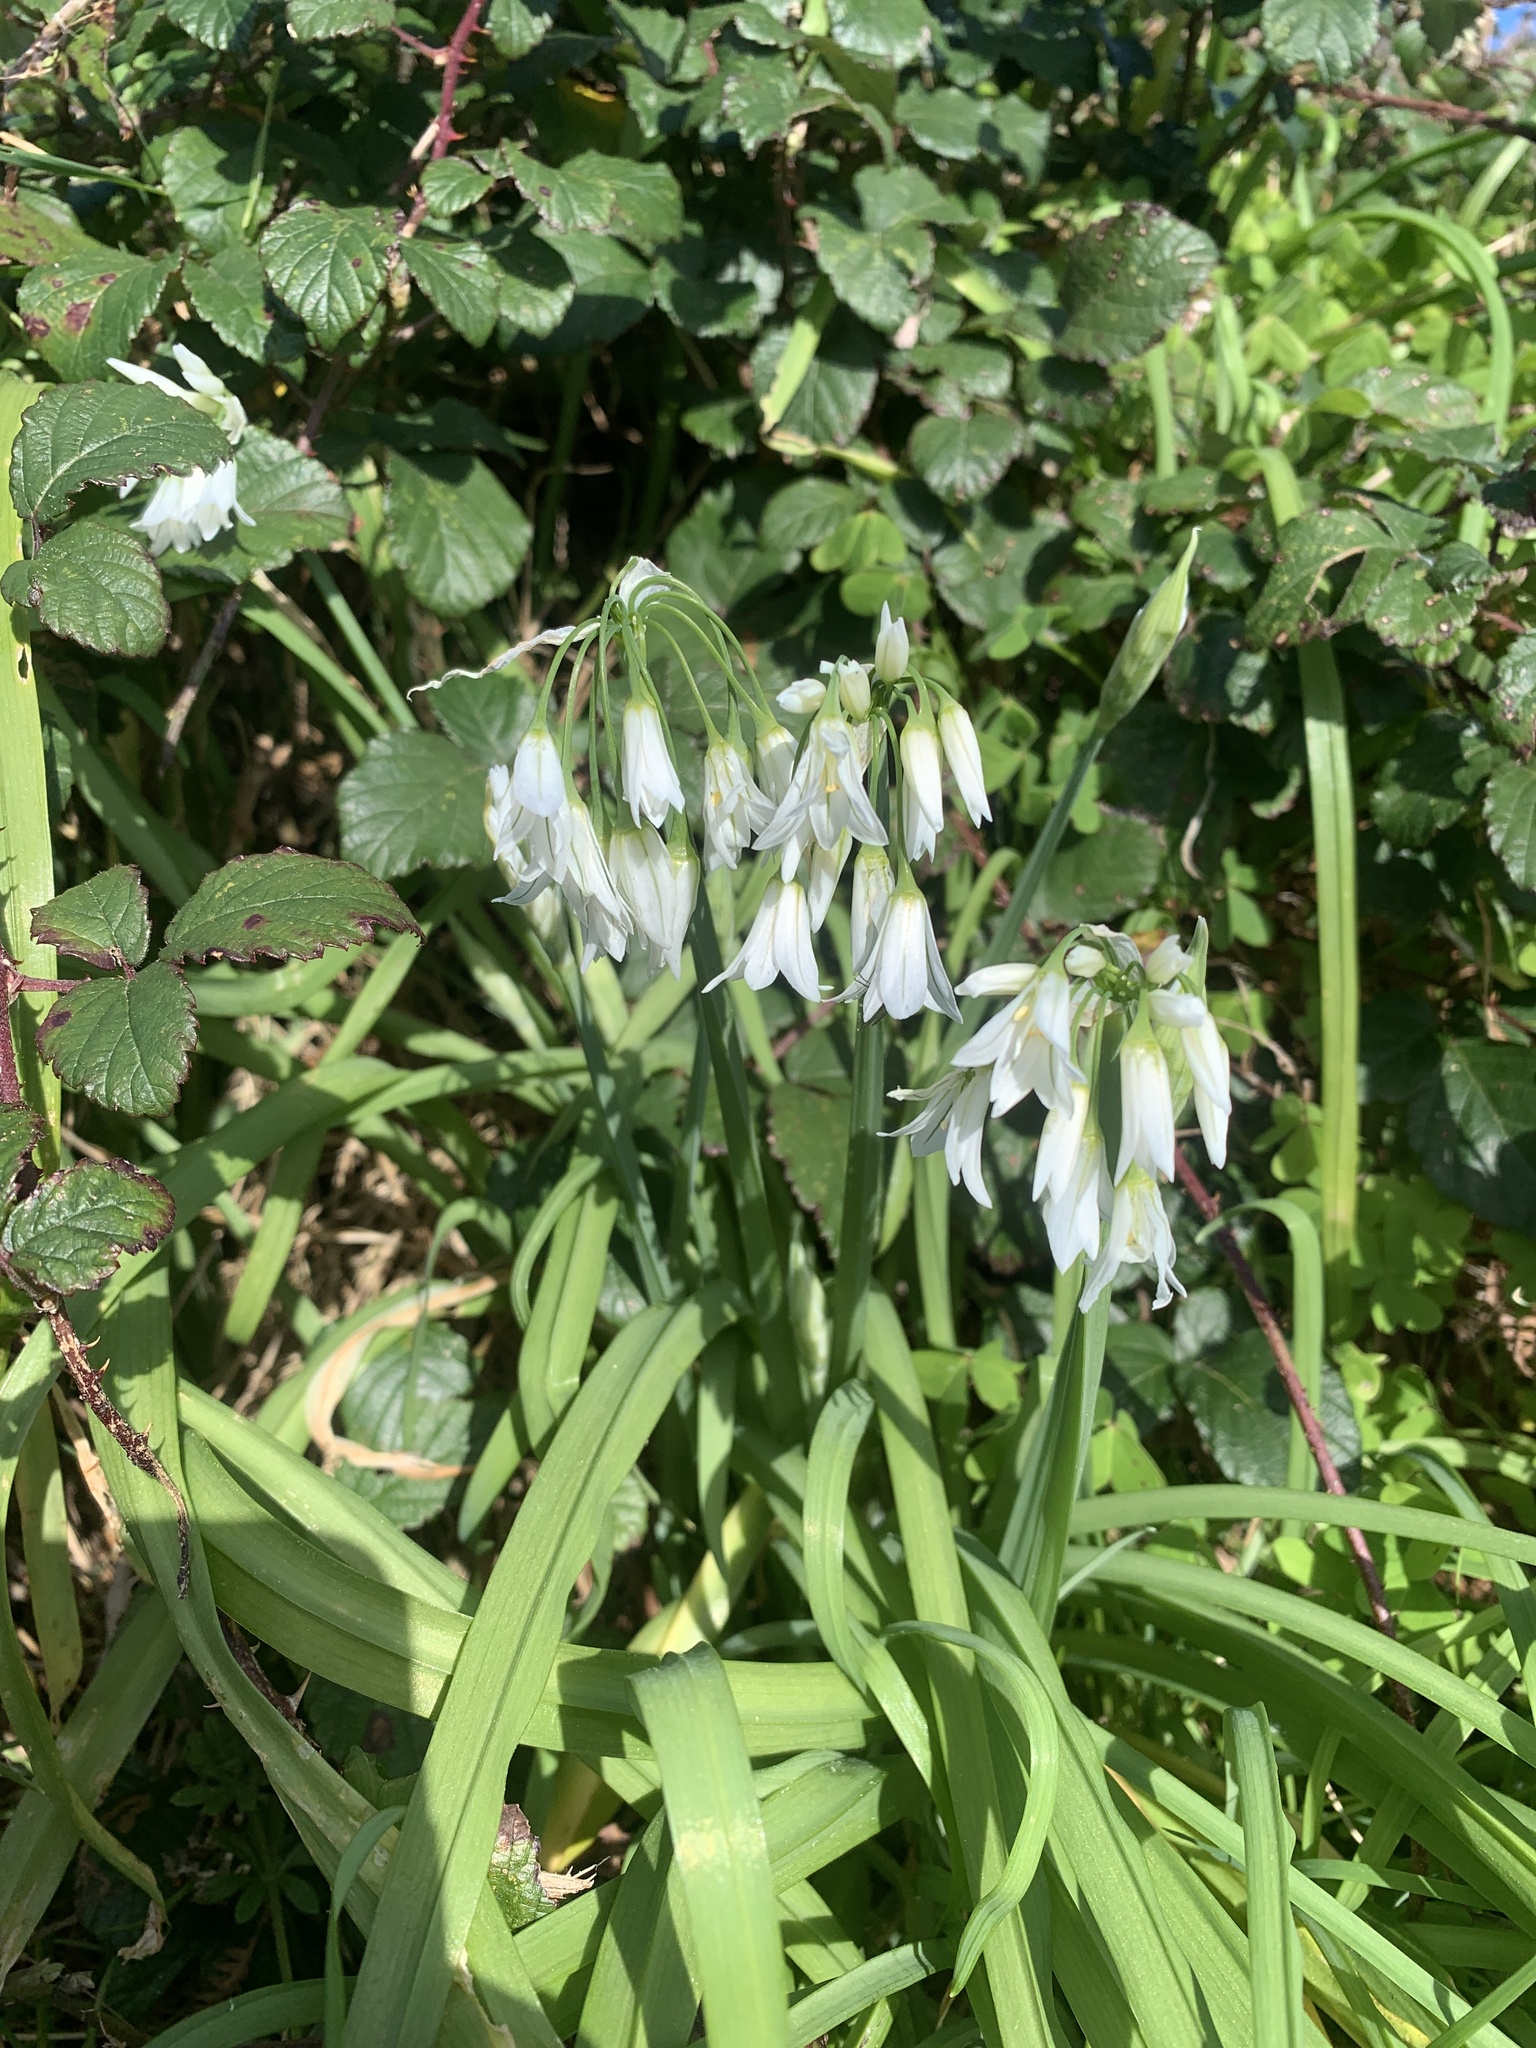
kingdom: Plantae
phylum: Tracheophyta
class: Liliopsida
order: Asparagales
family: Amaryllidaceae
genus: Allium
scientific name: Allium triquetrum
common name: Three-cornered garlic
